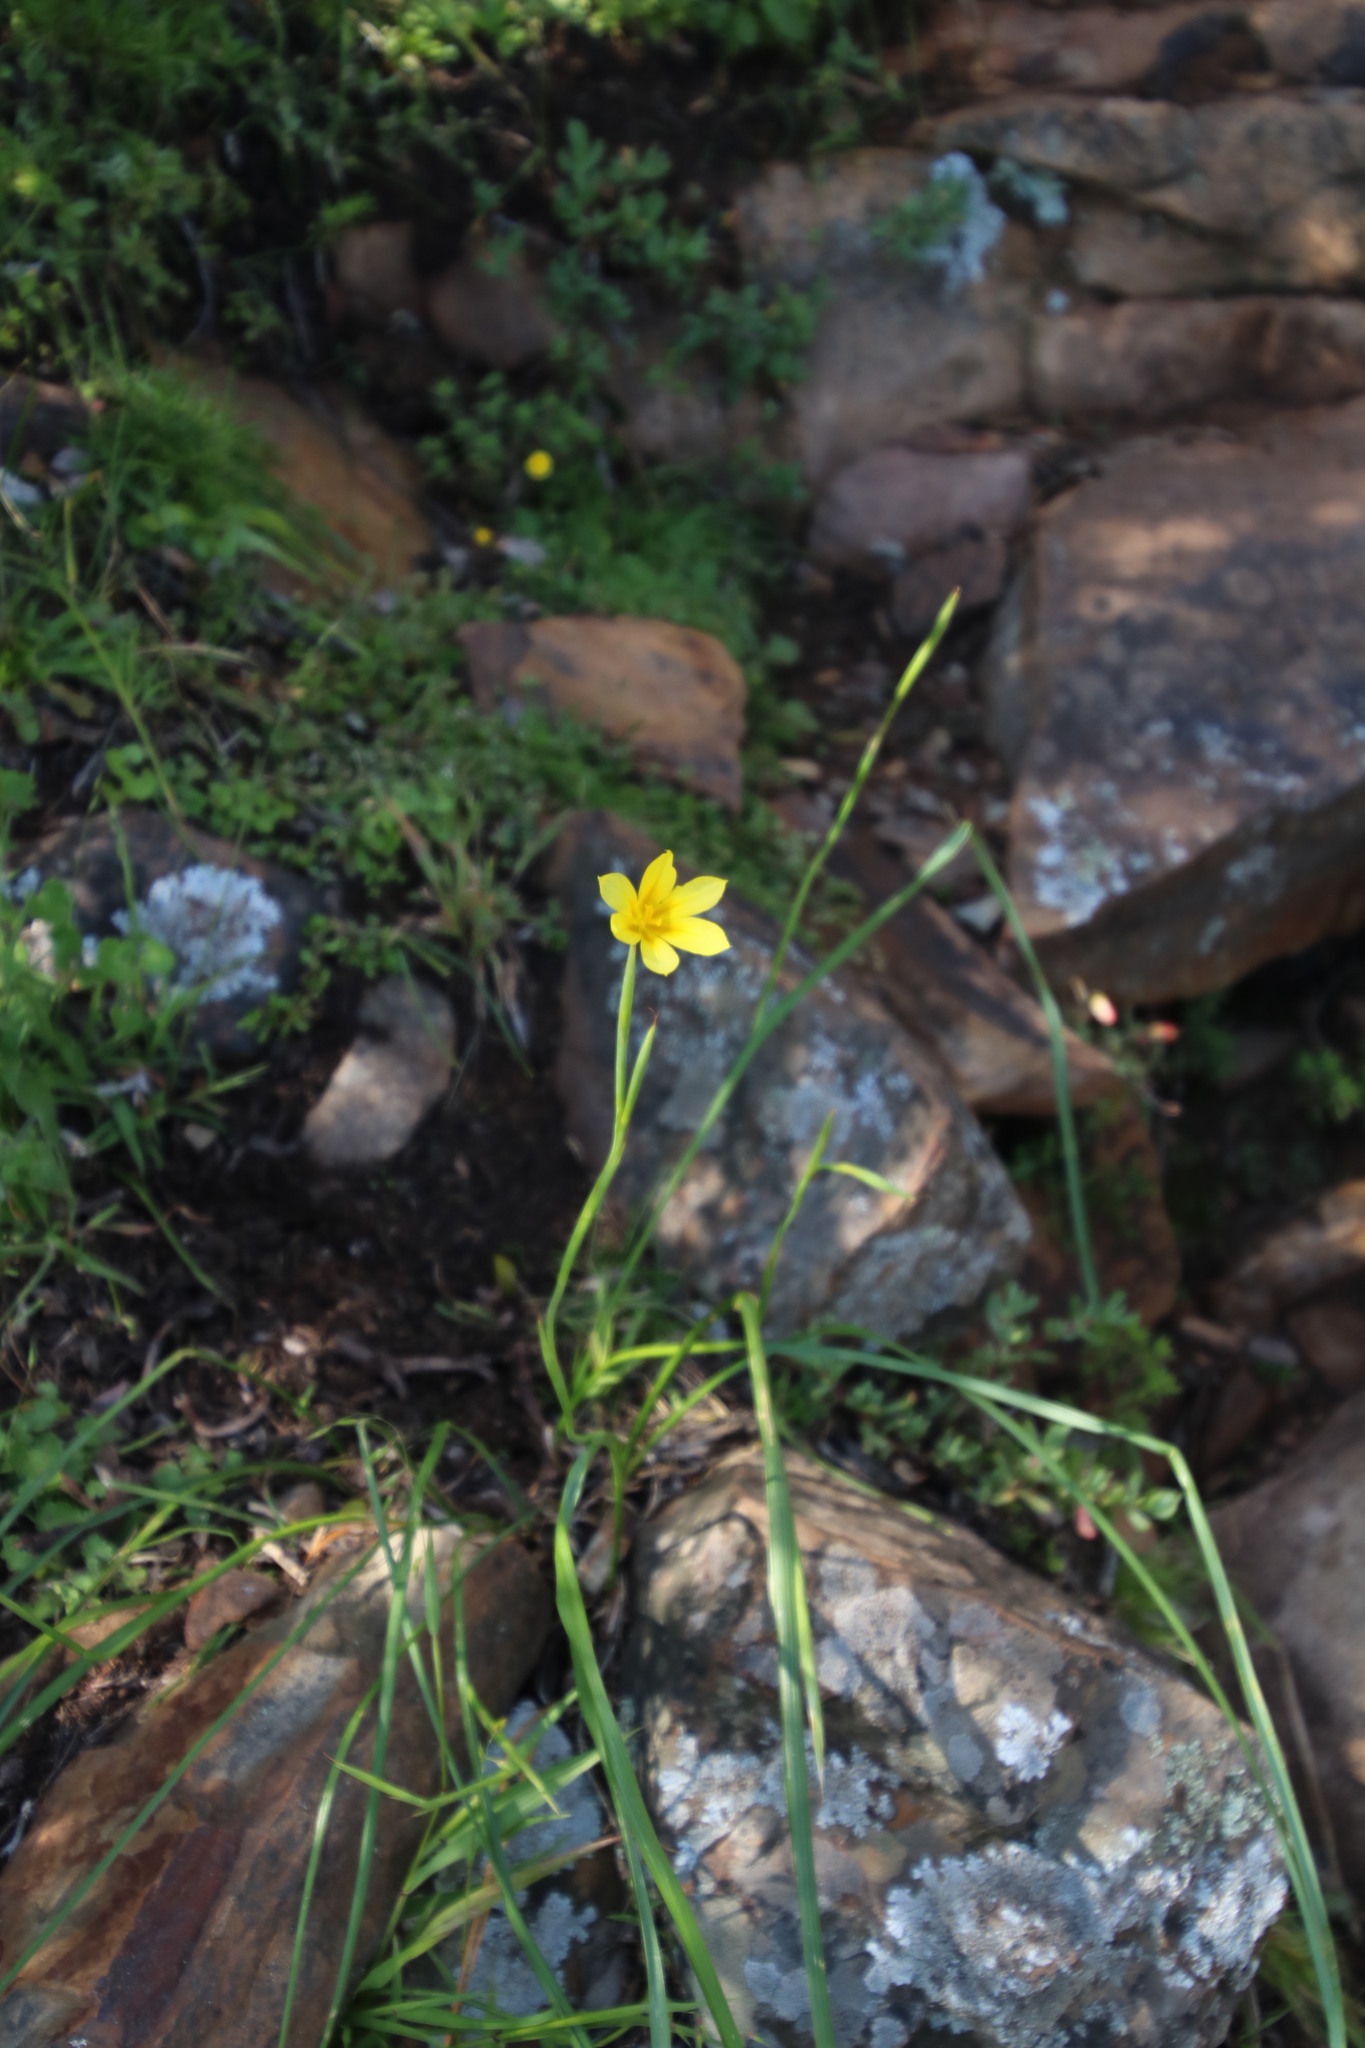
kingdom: Plantae
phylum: Tracheophyta
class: Liliopsida
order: Asparagales
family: Iridaceae
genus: Moraea
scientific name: Moraea ochroleuca
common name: Red tulp
